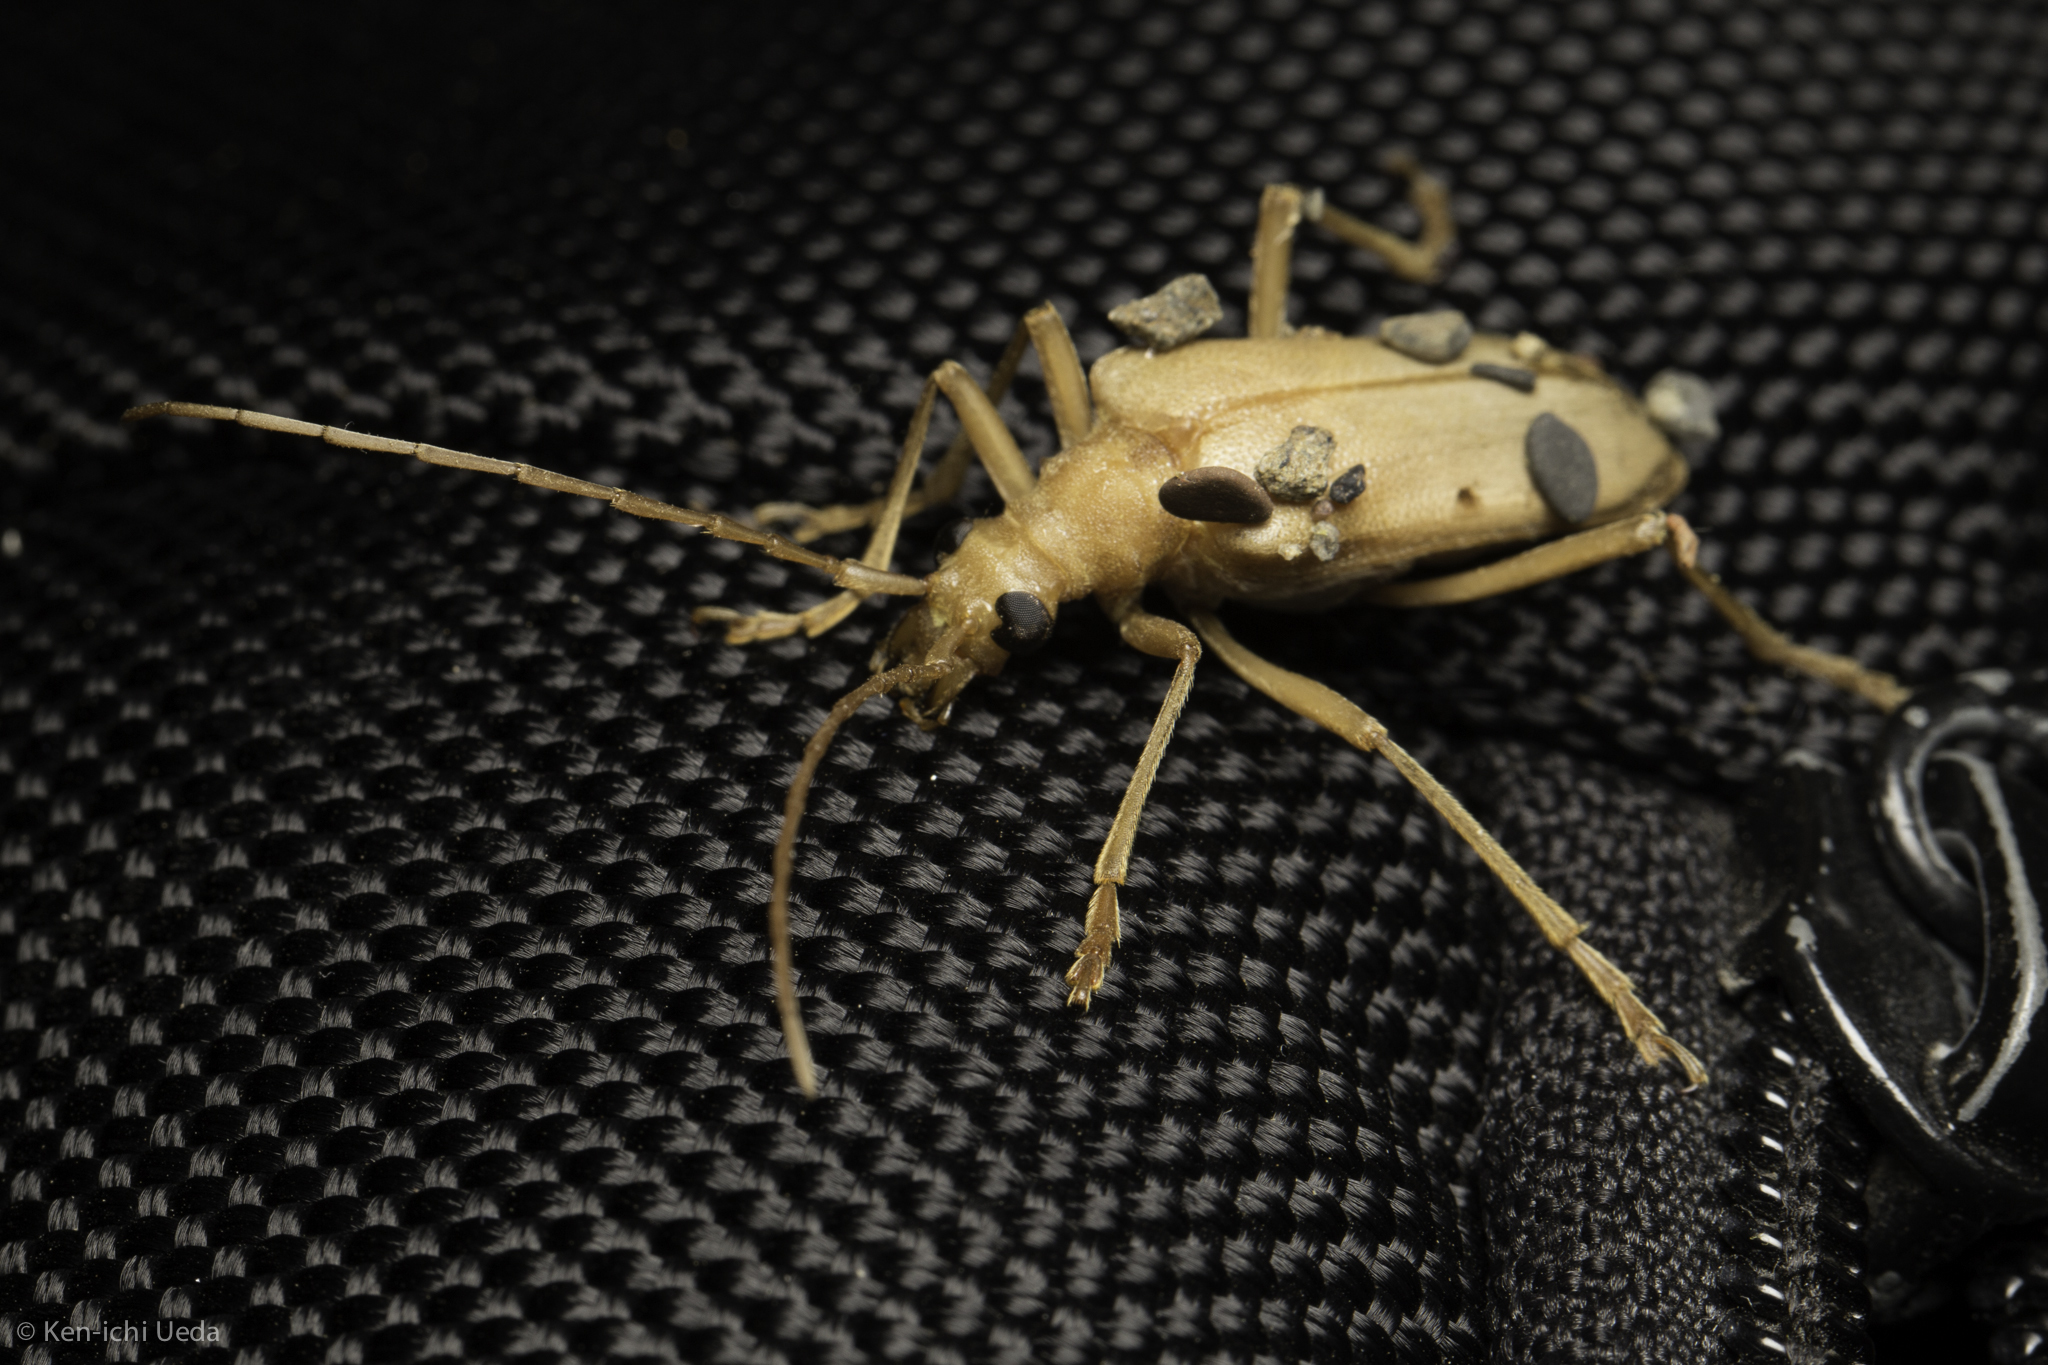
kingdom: Animalia
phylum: Arthropoda
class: Insecta
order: Coleoptera
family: Cerambycidae
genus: Centrodera
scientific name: Centrodera spurca
